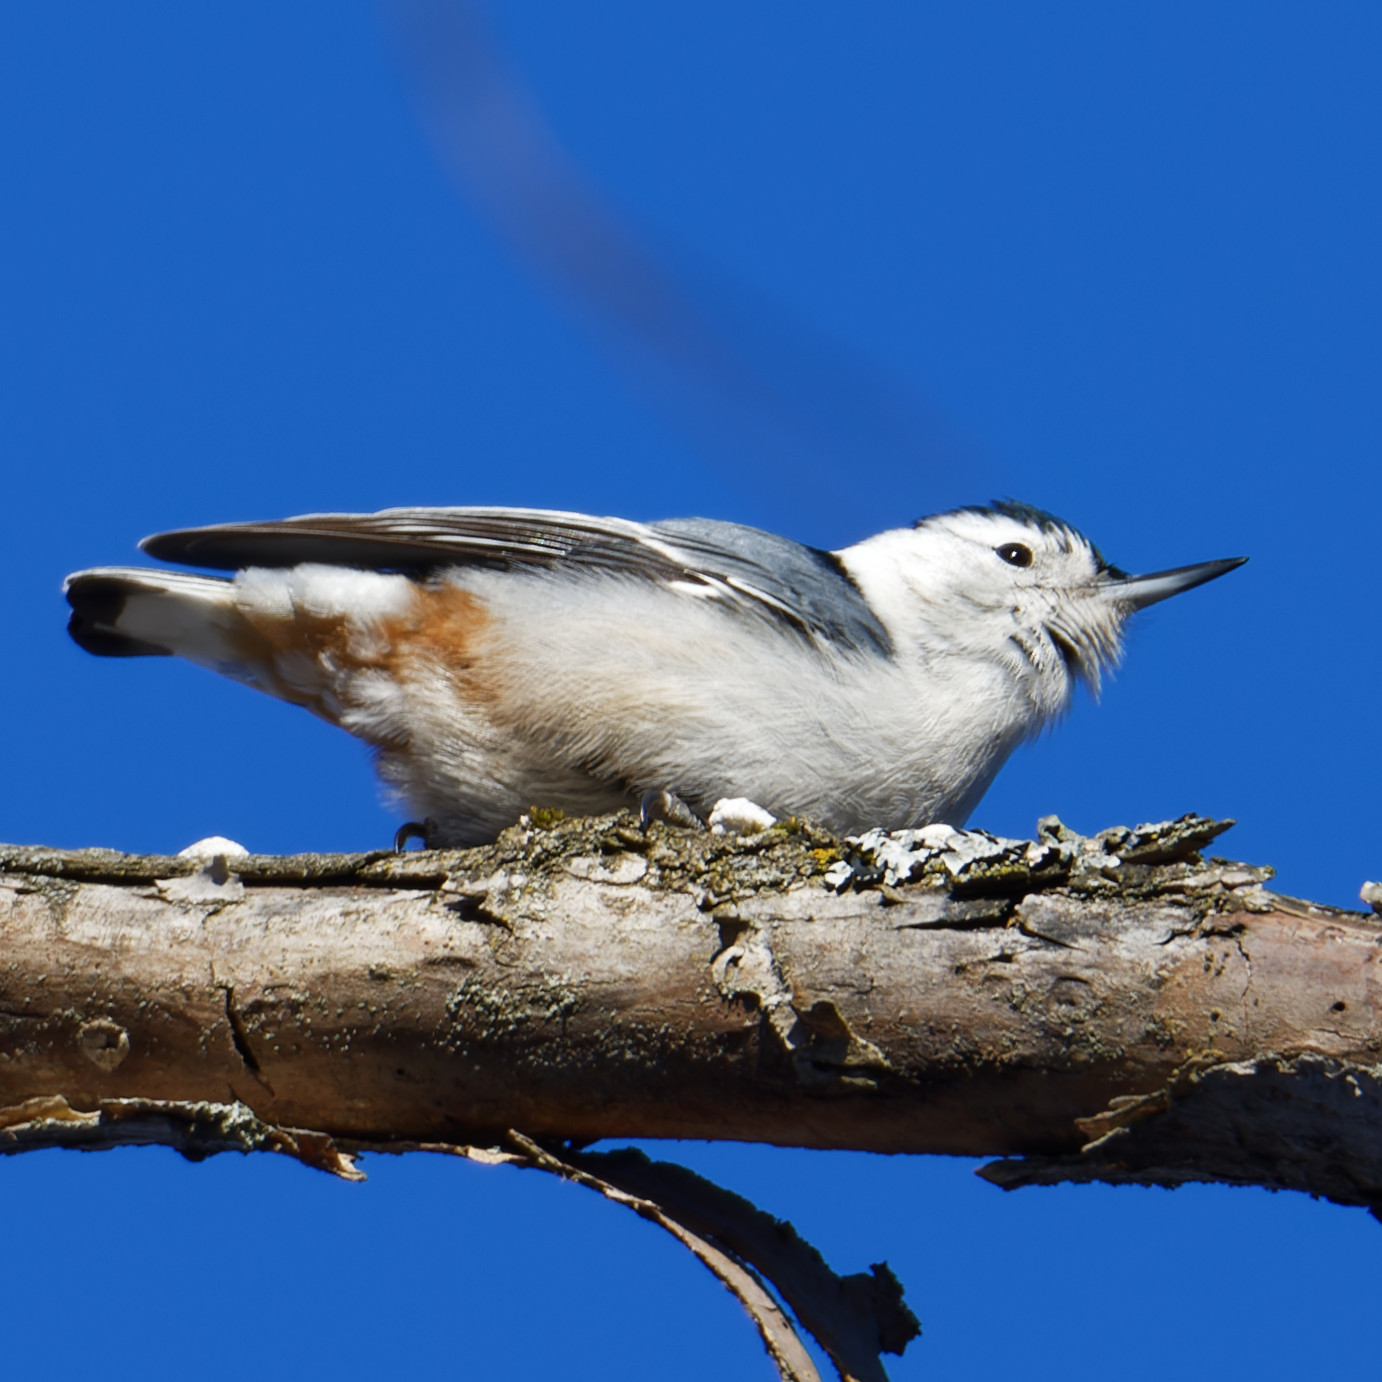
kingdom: Animalia
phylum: Chordata
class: Aves
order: Passeriformes
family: Sittidae
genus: Sitta
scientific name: Sitta carolinensis
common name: White-breasted nuthatch
